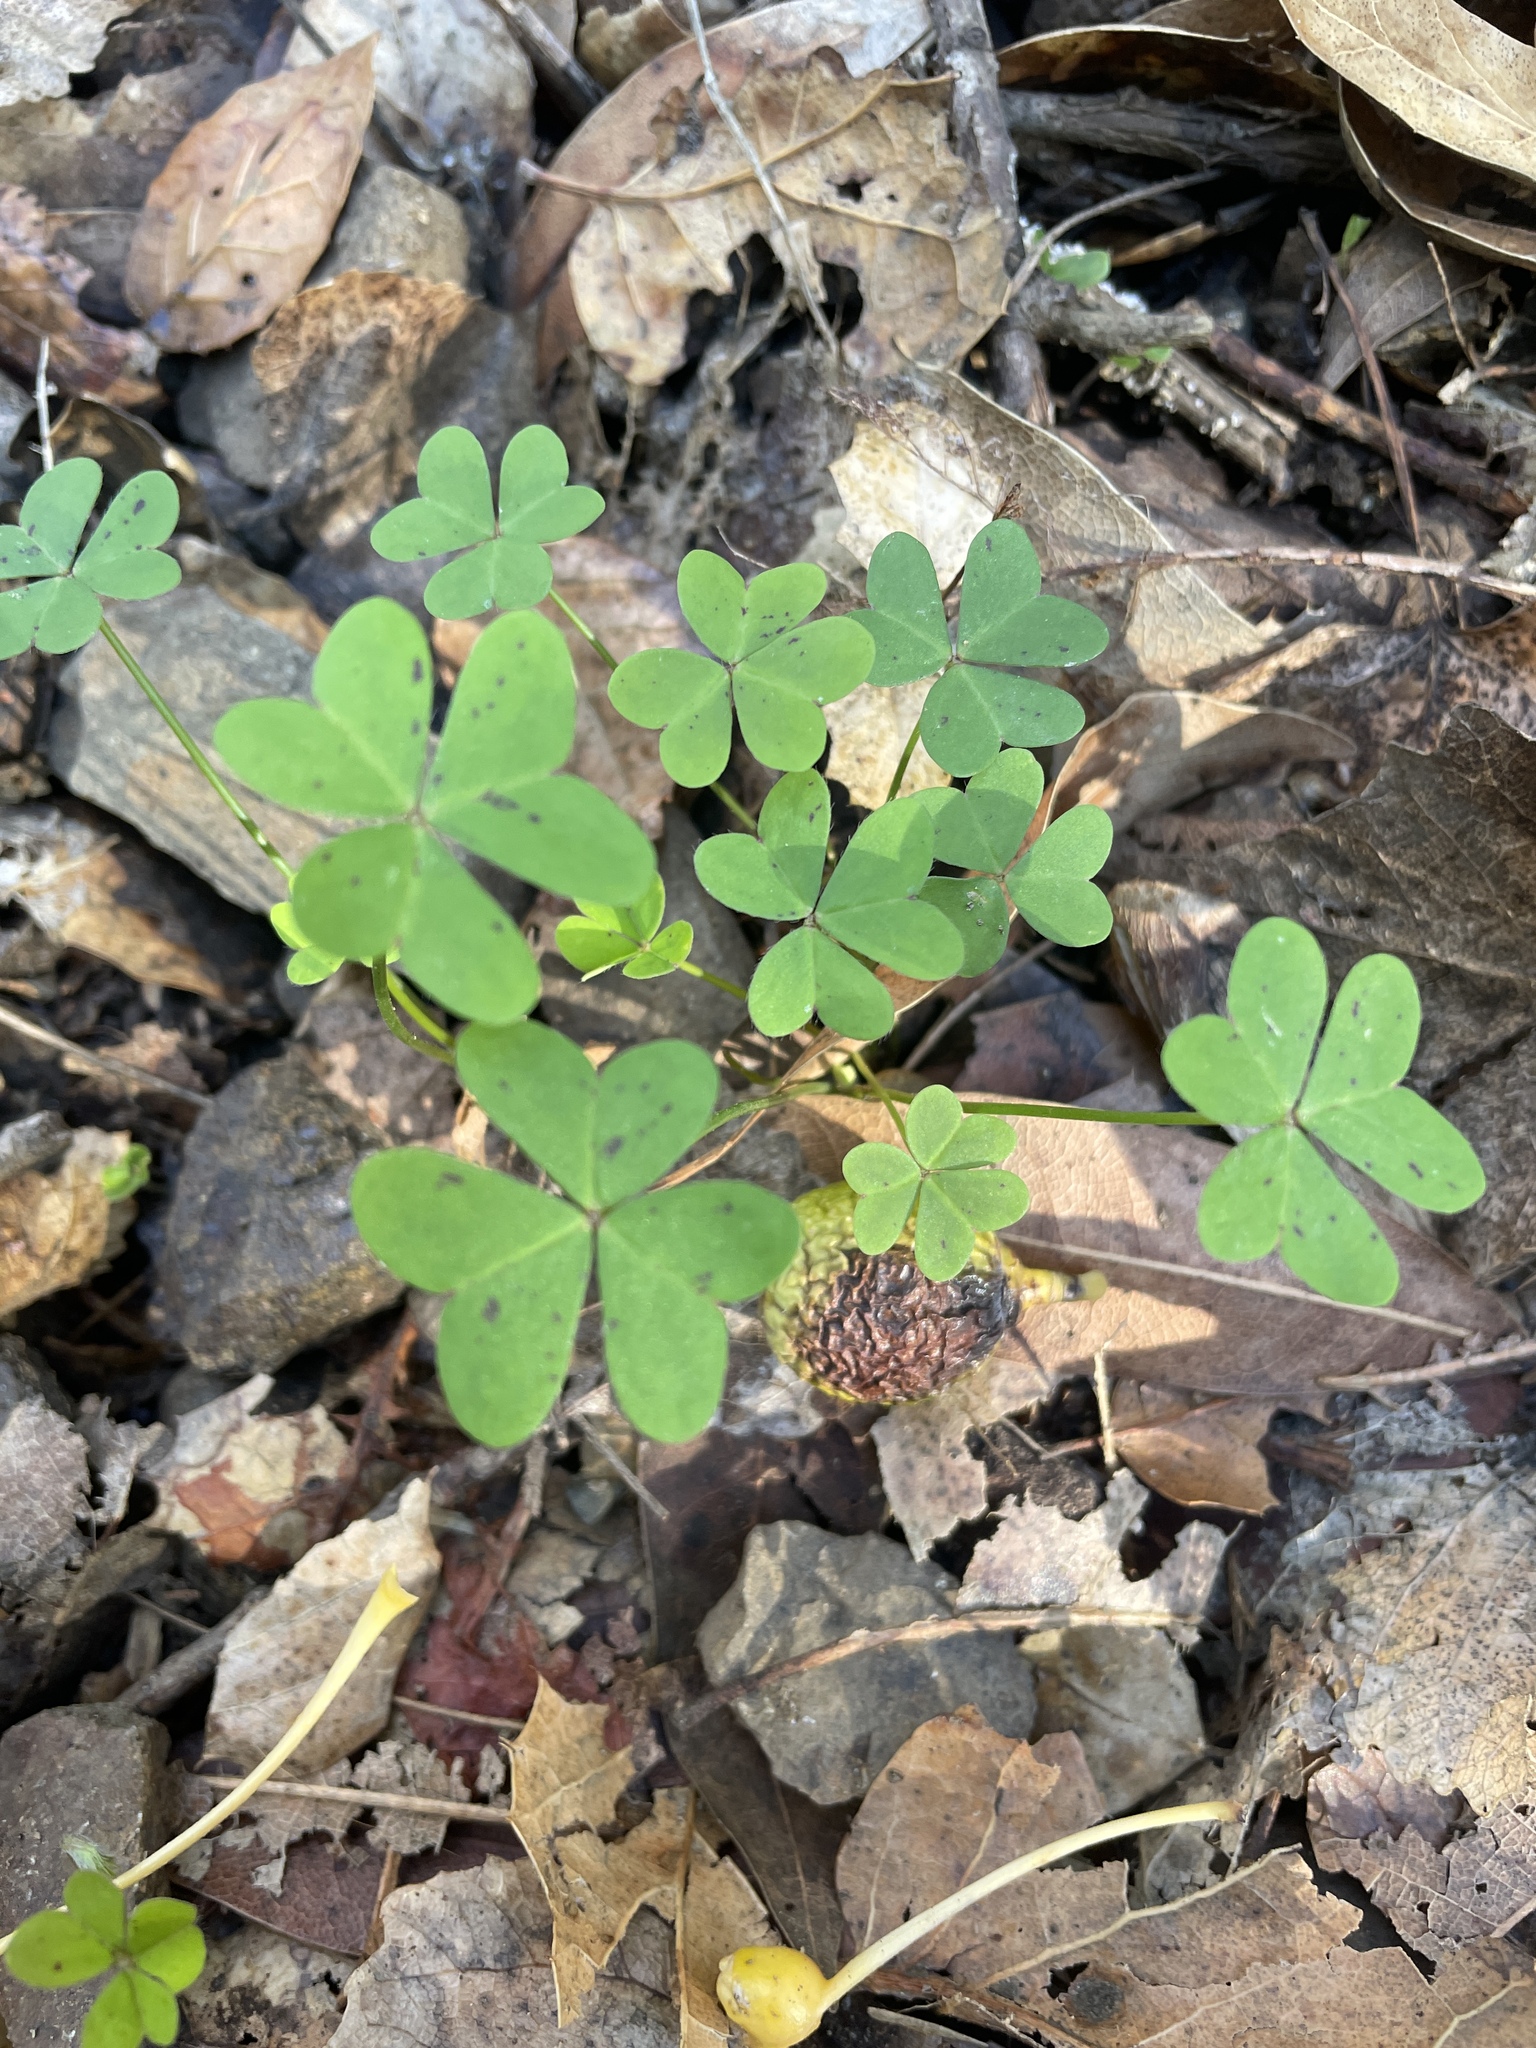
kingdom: Plantae
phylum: Tracheophyta
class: Magnoliopsida
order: Oxalidales
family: Oxalidaceae
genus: Oxalis
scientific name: Oxalis pes-caprae
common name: Bermuda-buttercup
